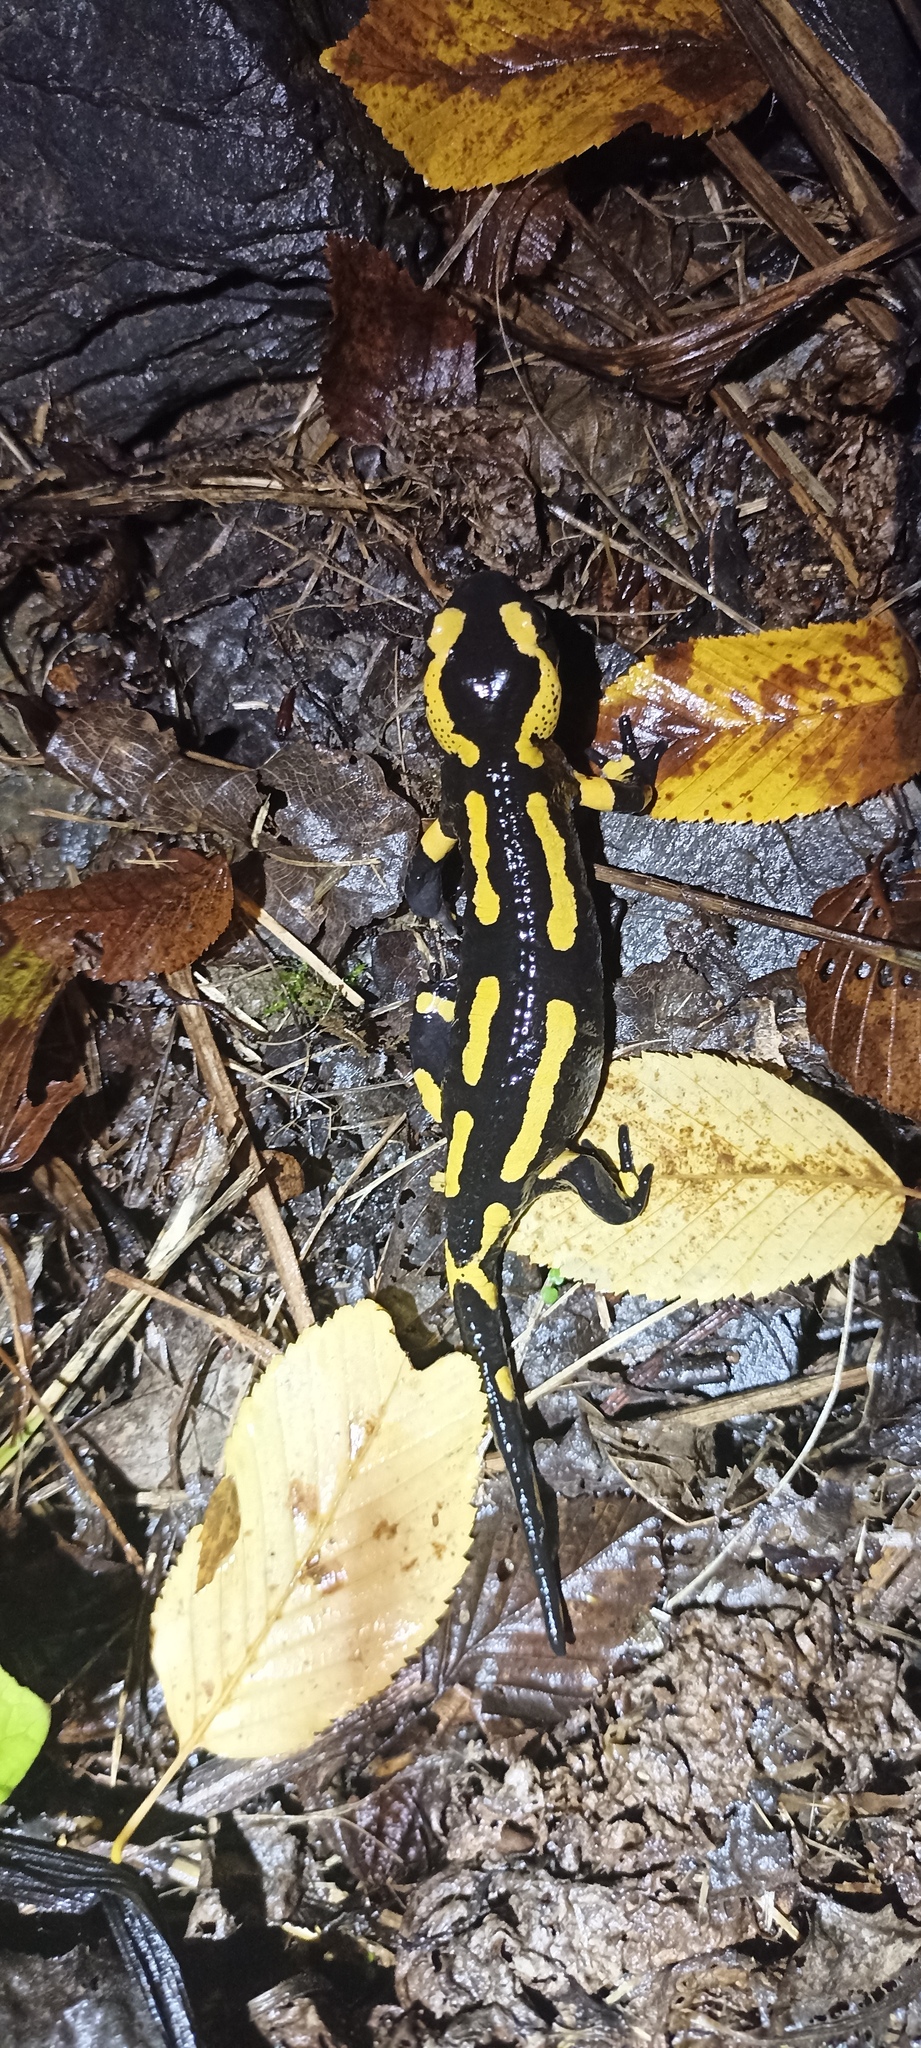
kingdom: Animalia
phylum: Chordata
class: Amphibia
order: Caudata
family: Salamandridae
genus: Salamandra
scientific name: Salamandra salamandra
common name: Fire salamander
